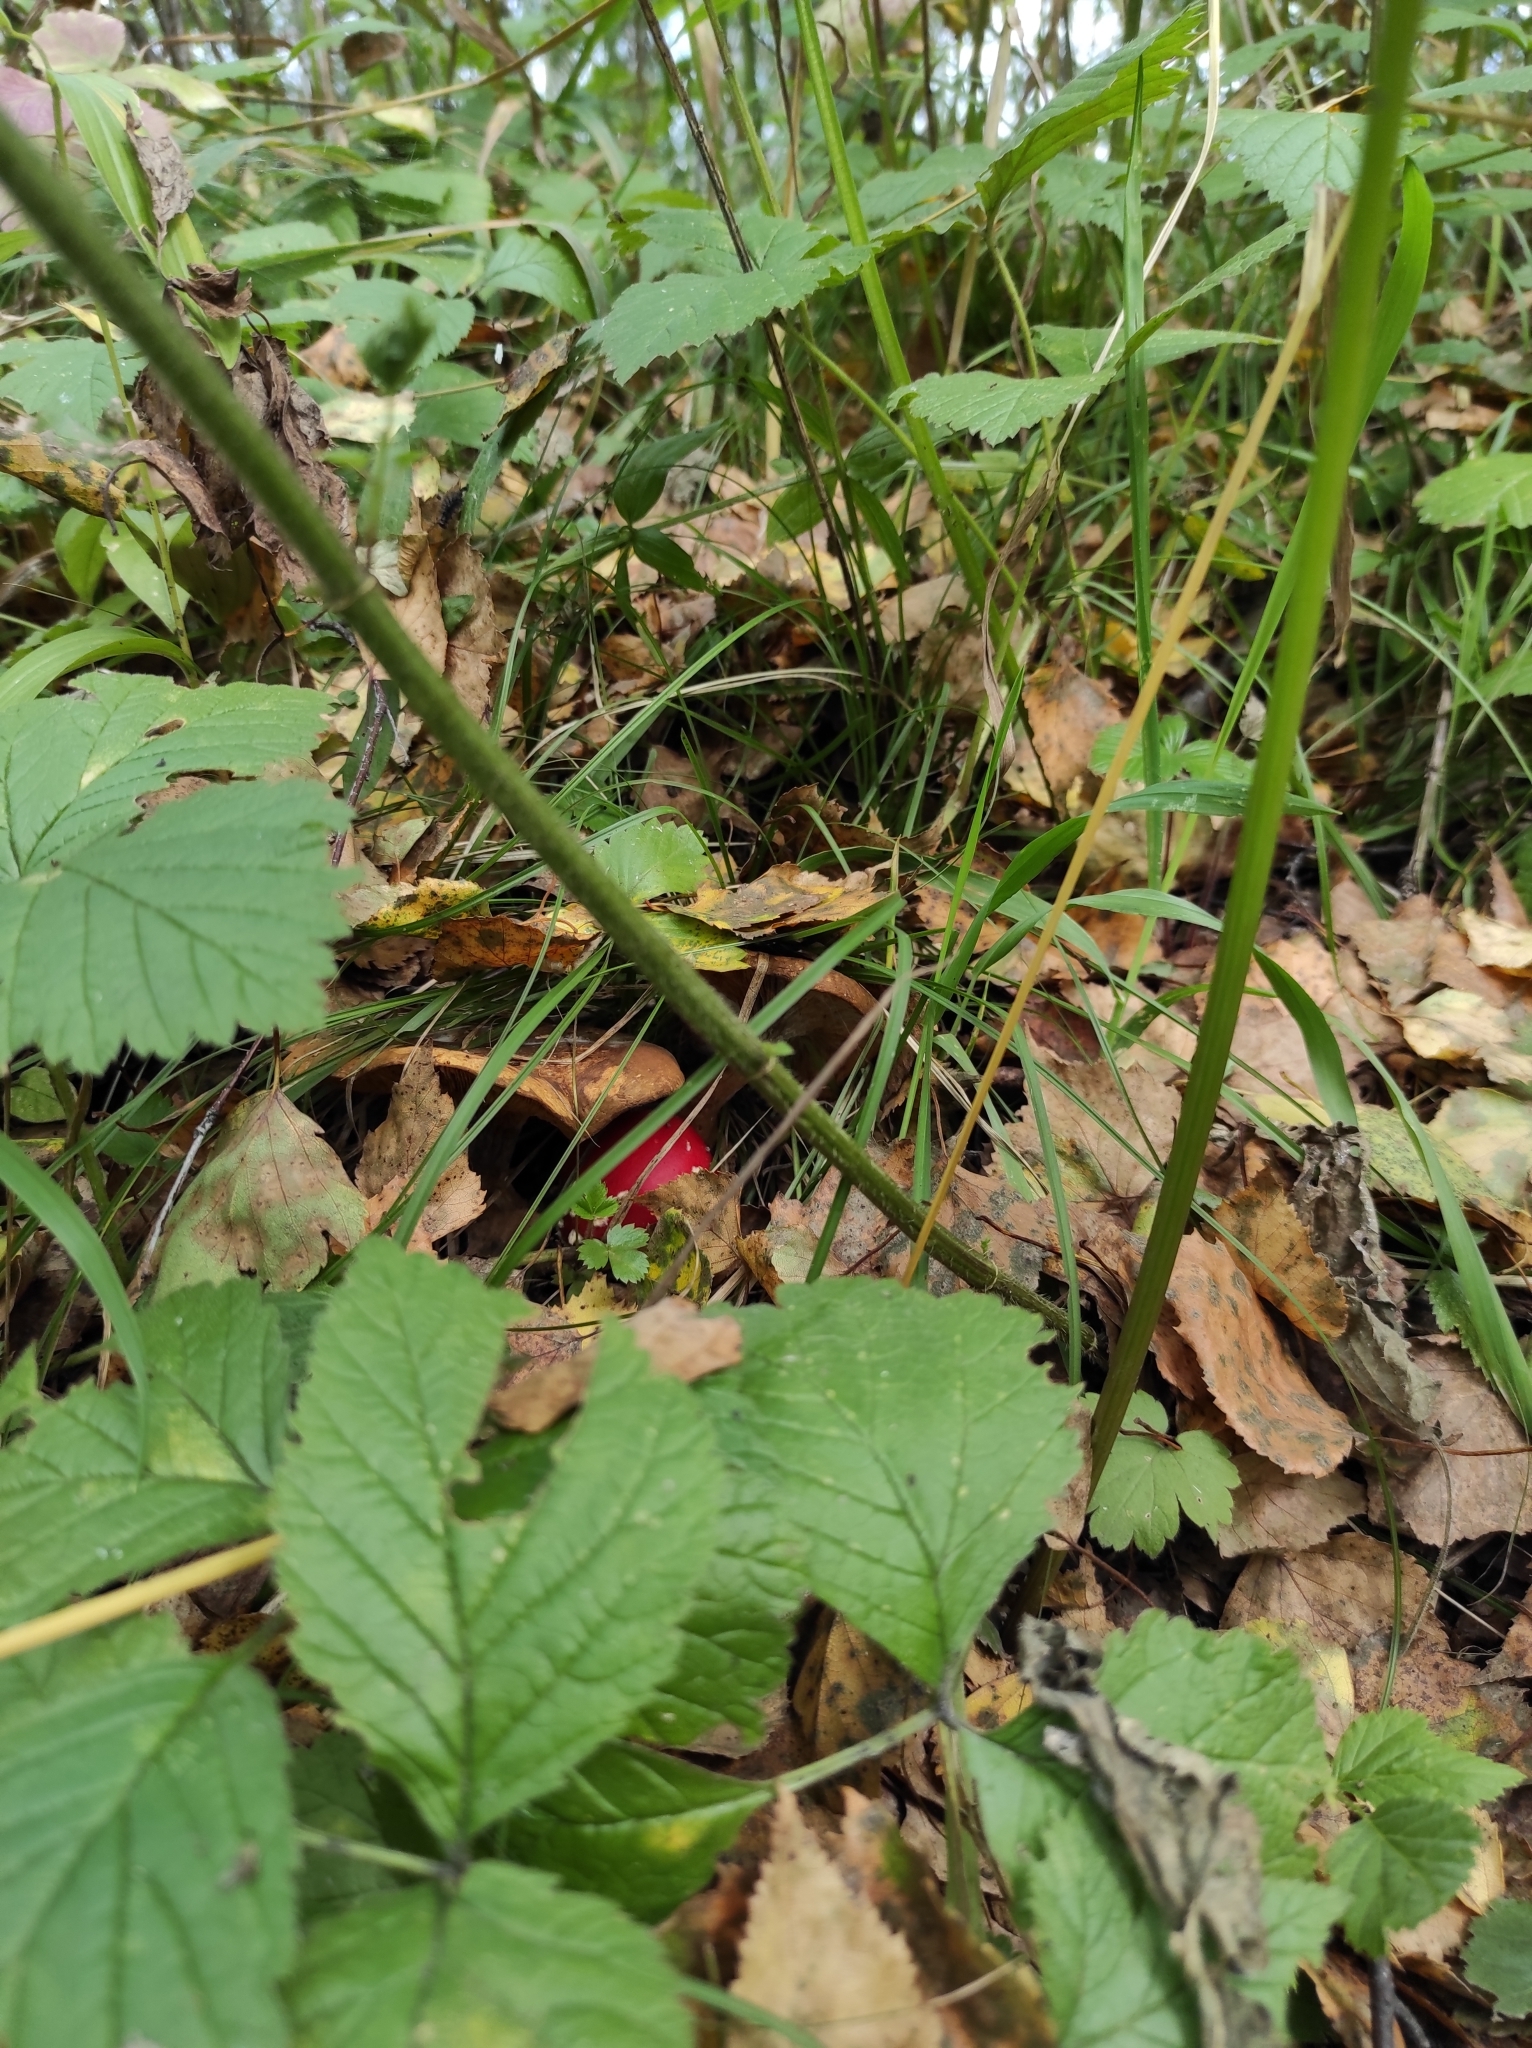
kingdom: Fungi
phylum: Basidiomycota
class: Agaricomycetes
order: Agaricales
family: Amanitaceae
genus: Amanita
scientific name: Amanita muscaria
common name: Fly agaric
